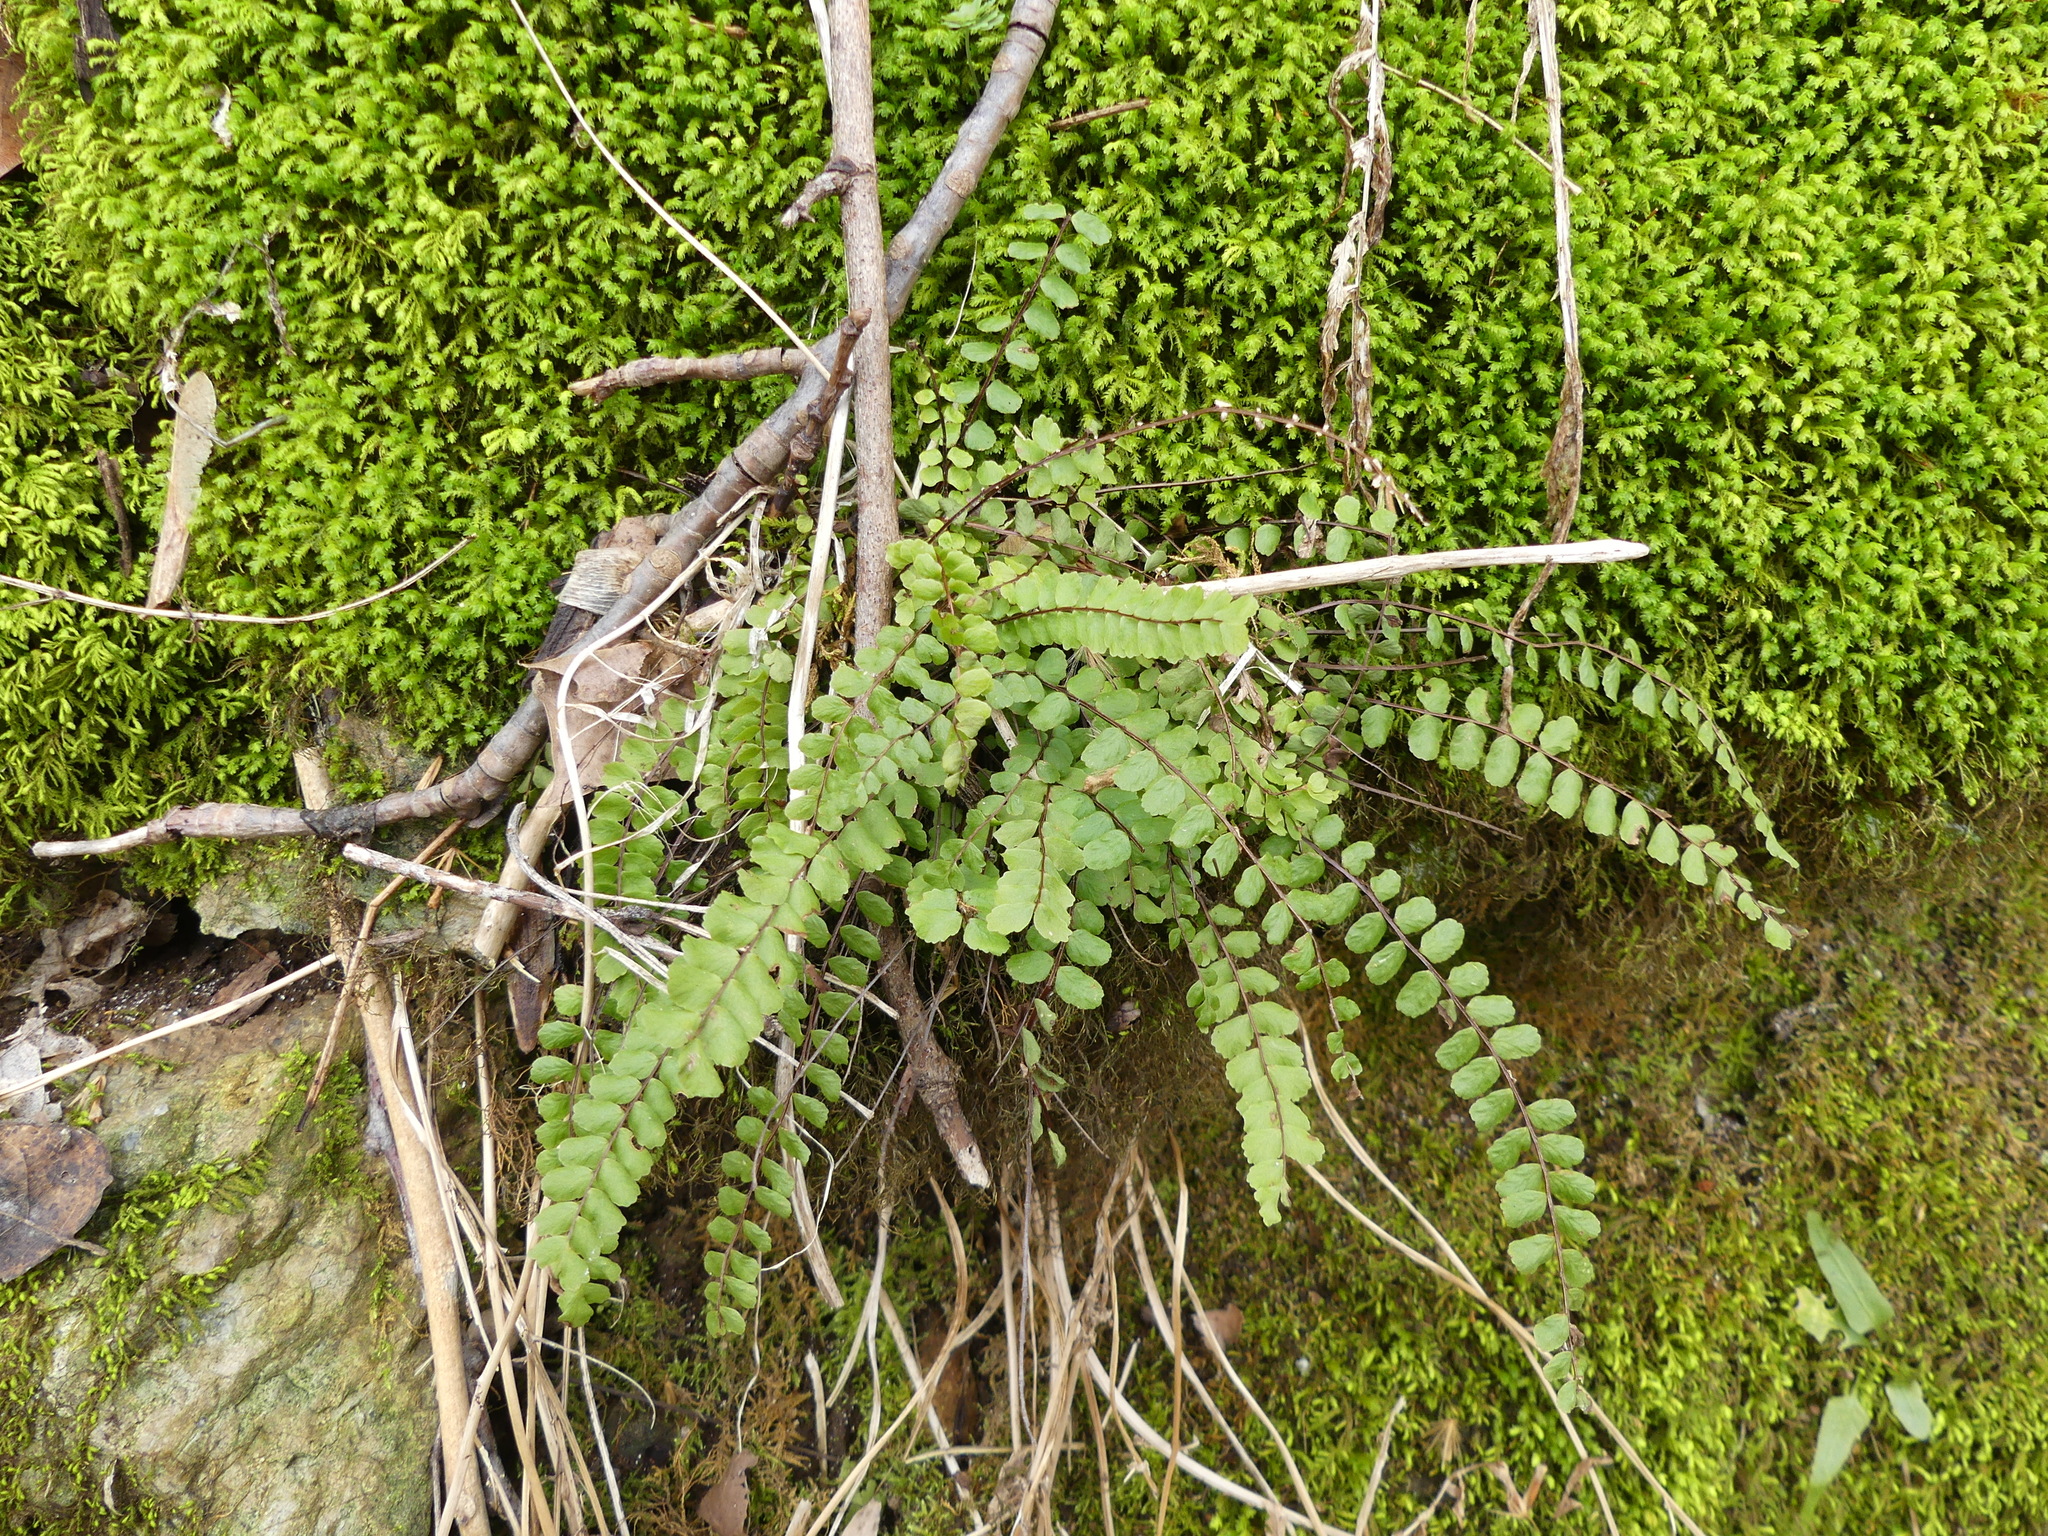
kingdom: Plantae
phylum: Tracheophyta
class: Polypodiopsida
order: Polypodiales
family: Aspleniaceae
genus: Asplenium
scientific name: Asplenium trichomanes
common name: Maidenhair spleenwort
